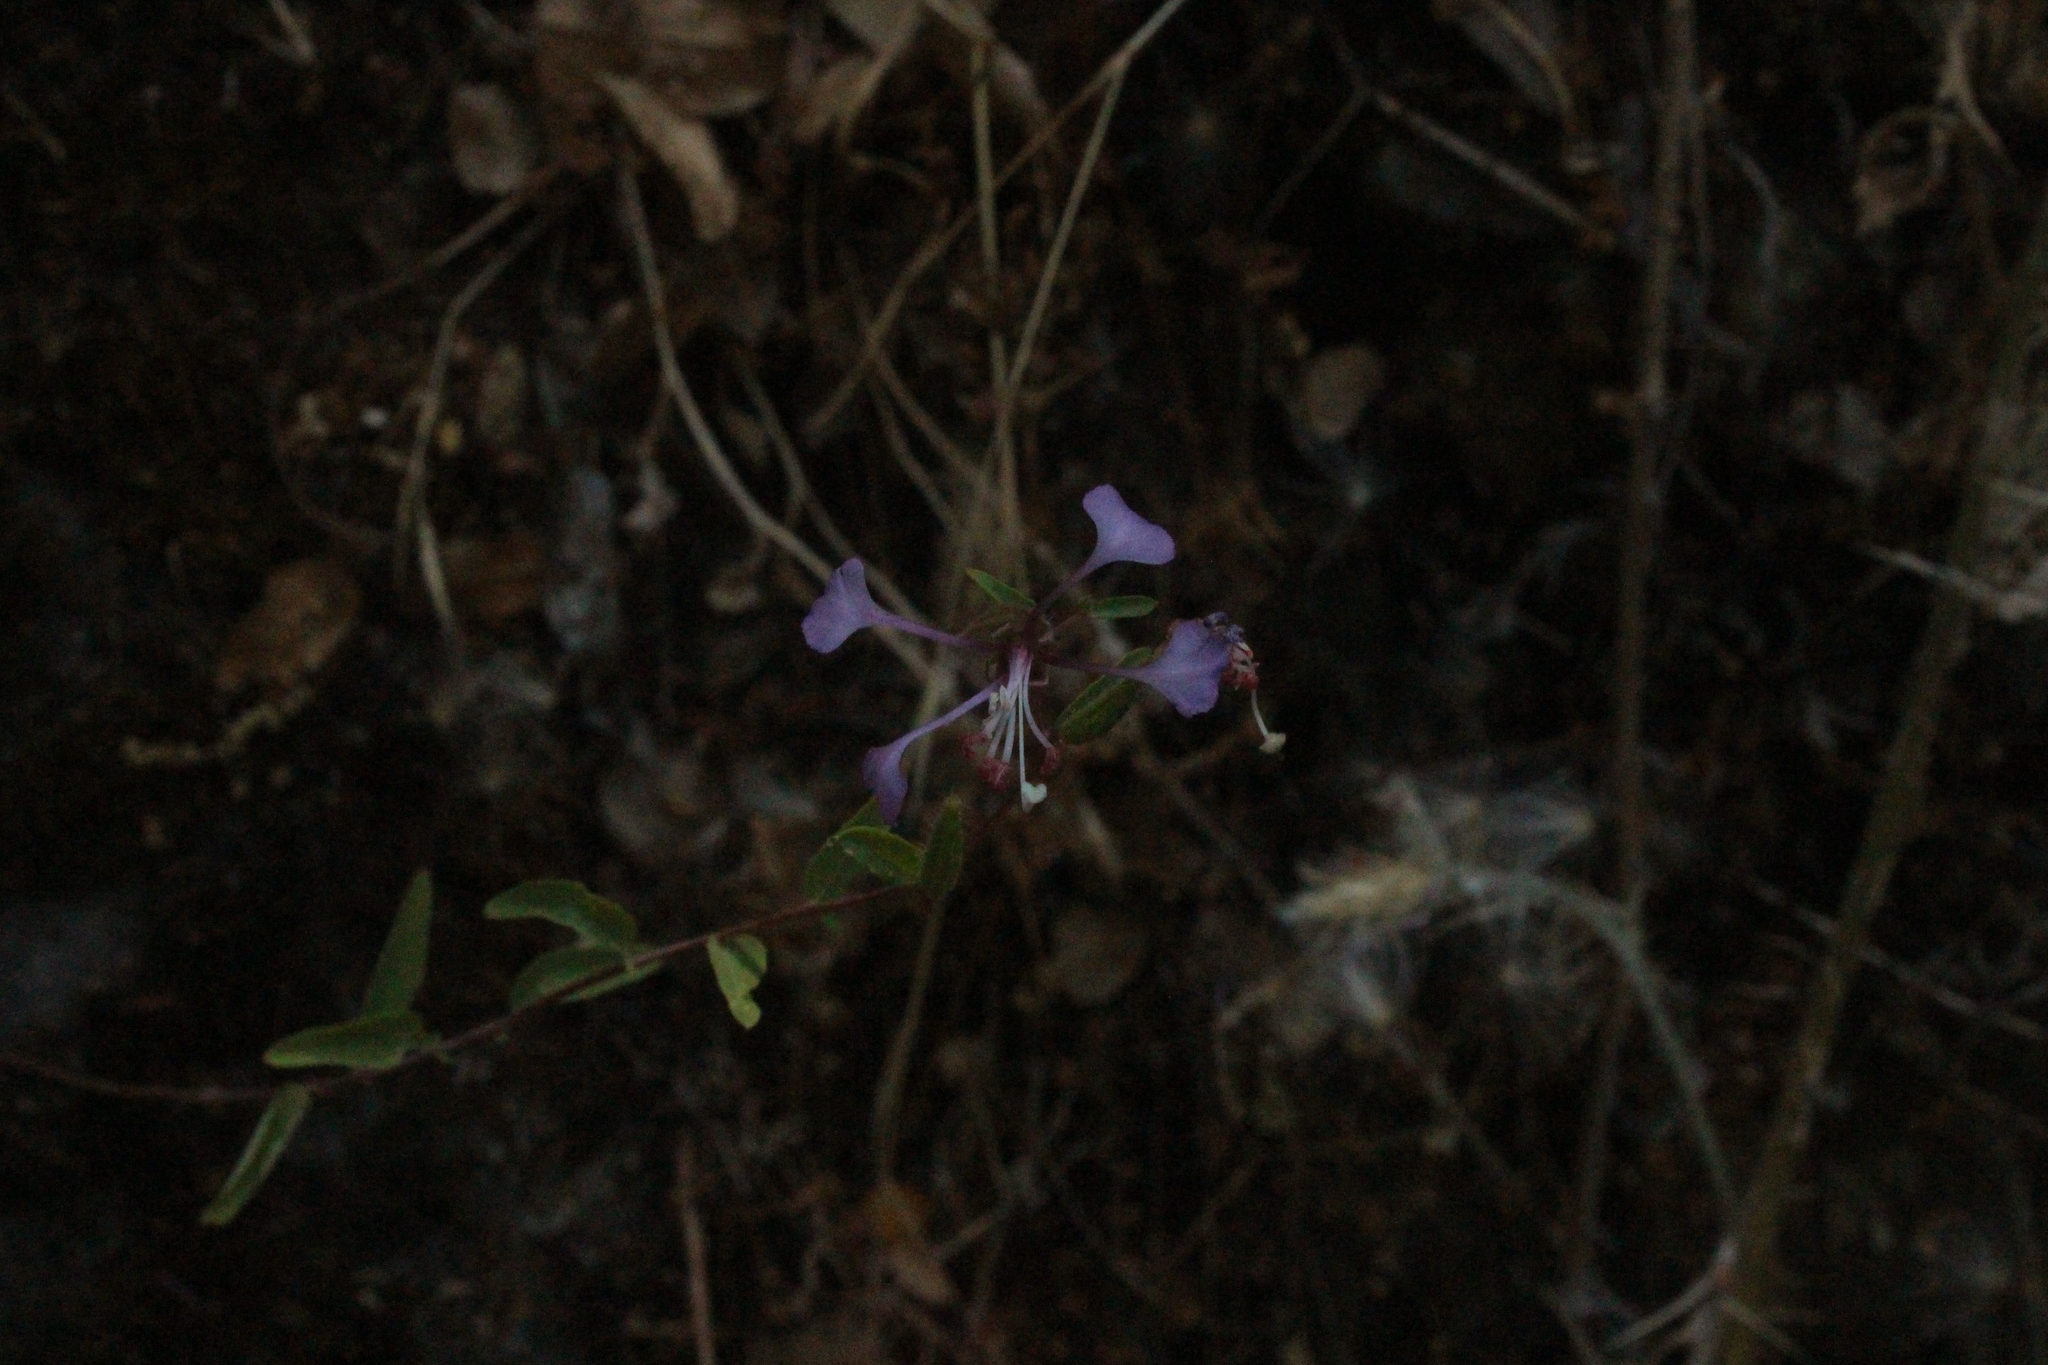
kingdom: Plantae
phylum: Tracheophyta
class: Magnoliopsida
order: Myrtales
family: Onagraceae
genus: Clarkia
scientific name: Clarkia unguiculata
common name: Clarkia
